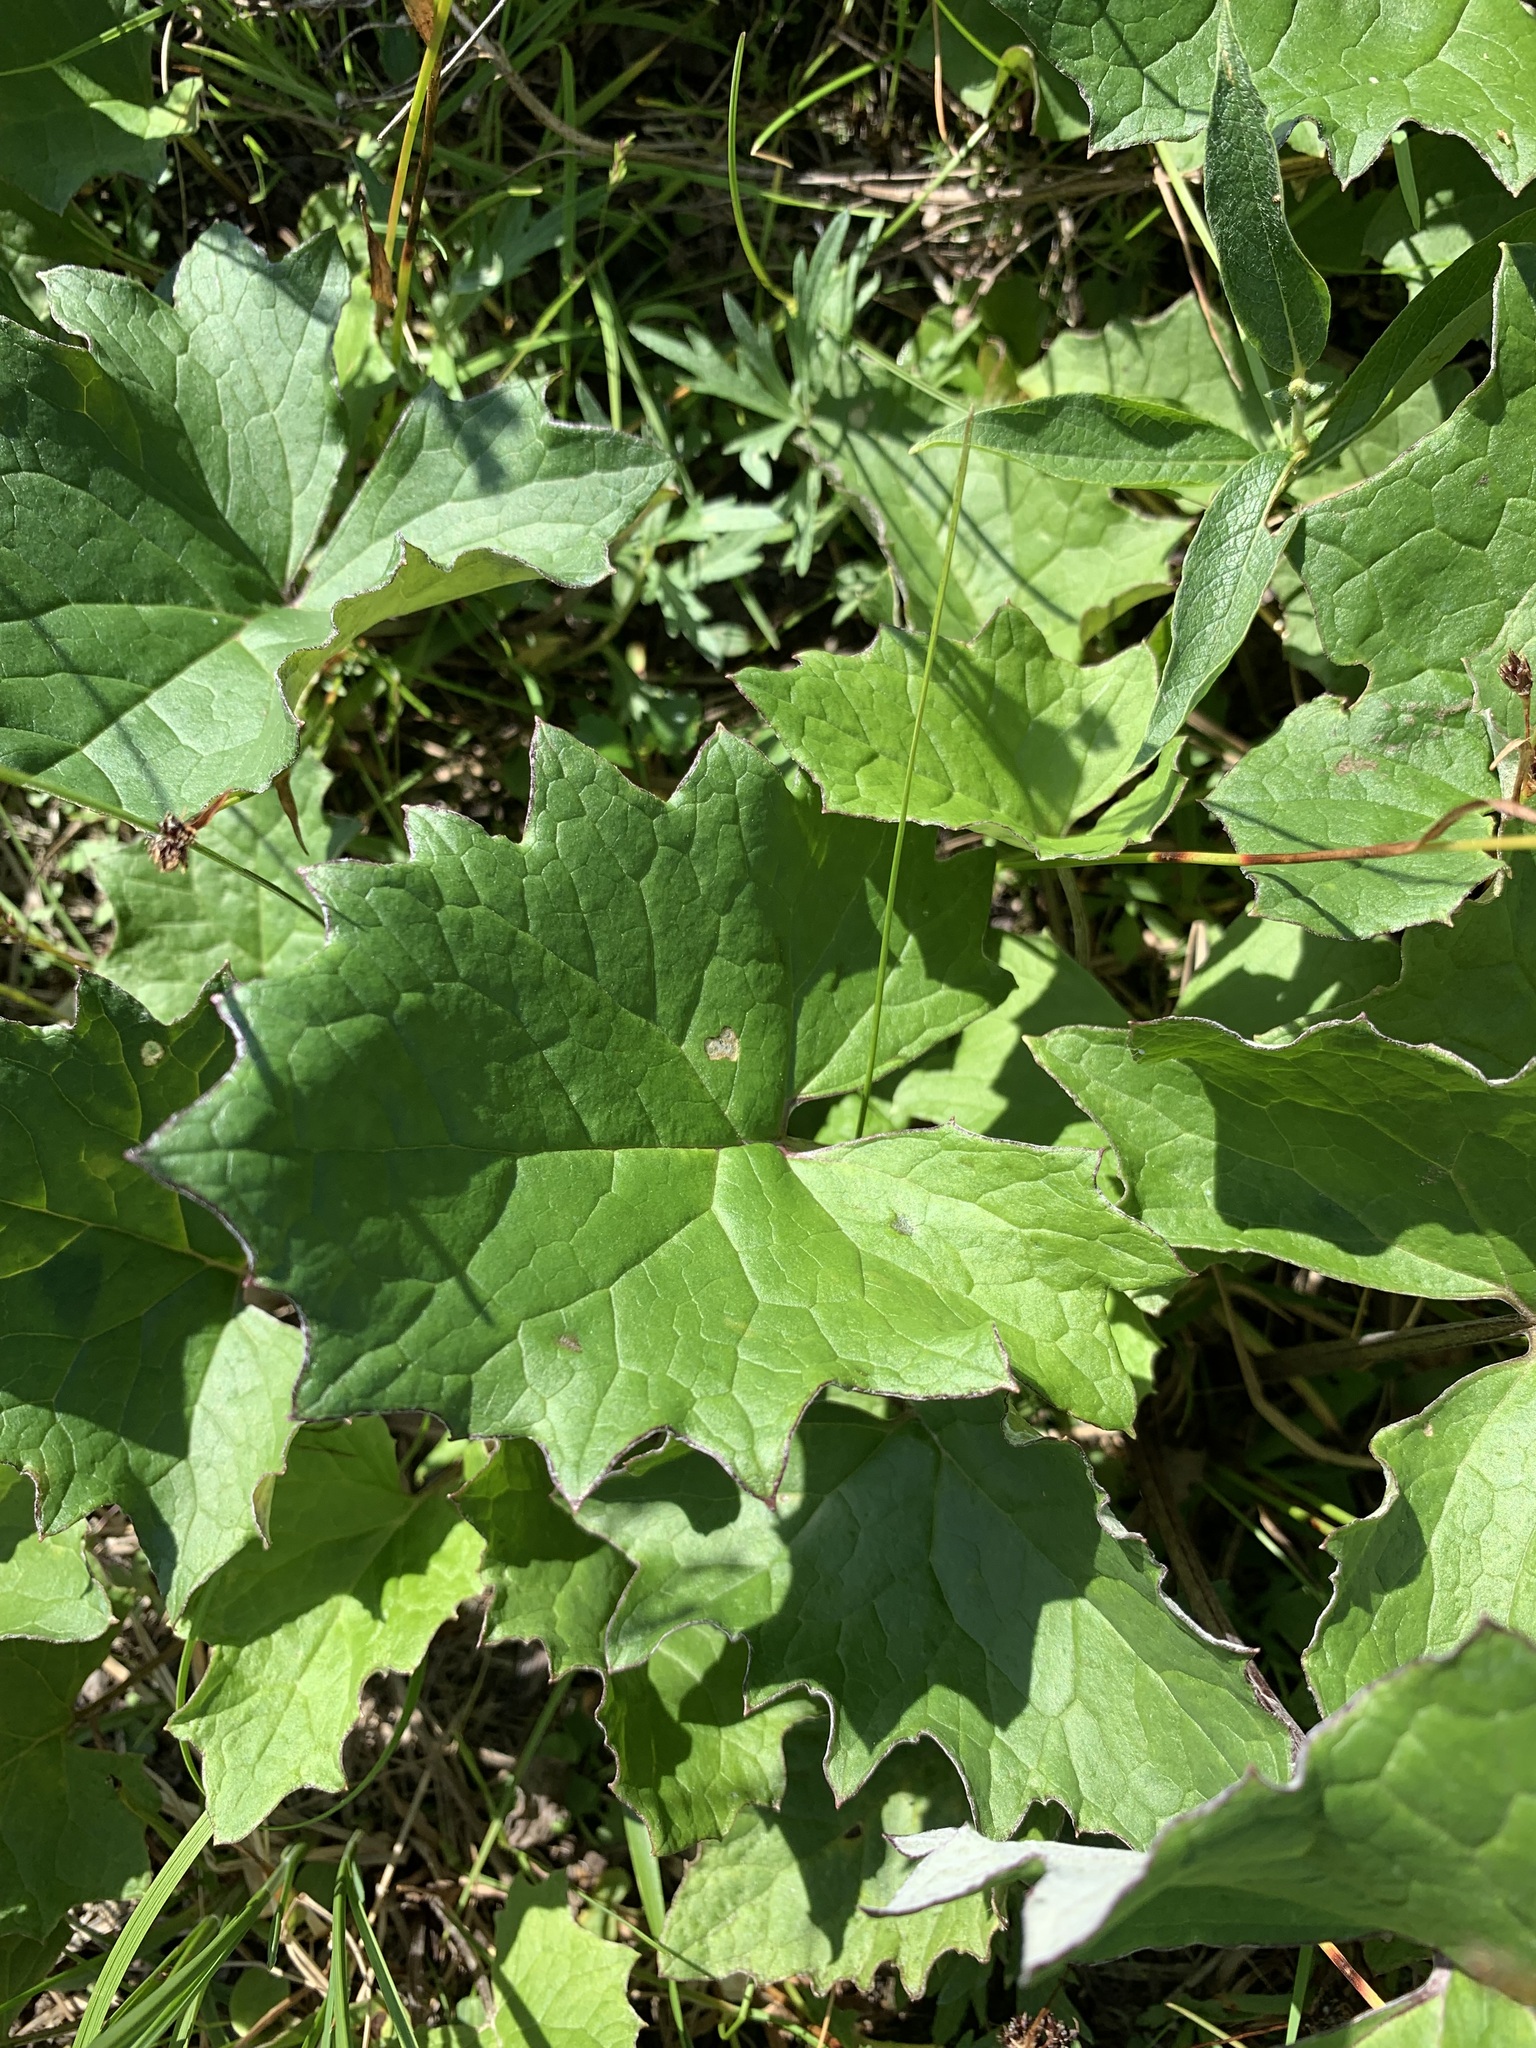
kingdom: Plantae
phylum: Tracheophyta
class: Magnoliopsida
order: Asterales
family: Asteraceae
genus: Petasites
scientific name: Petasites frigidus
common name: Arctic butterbur
